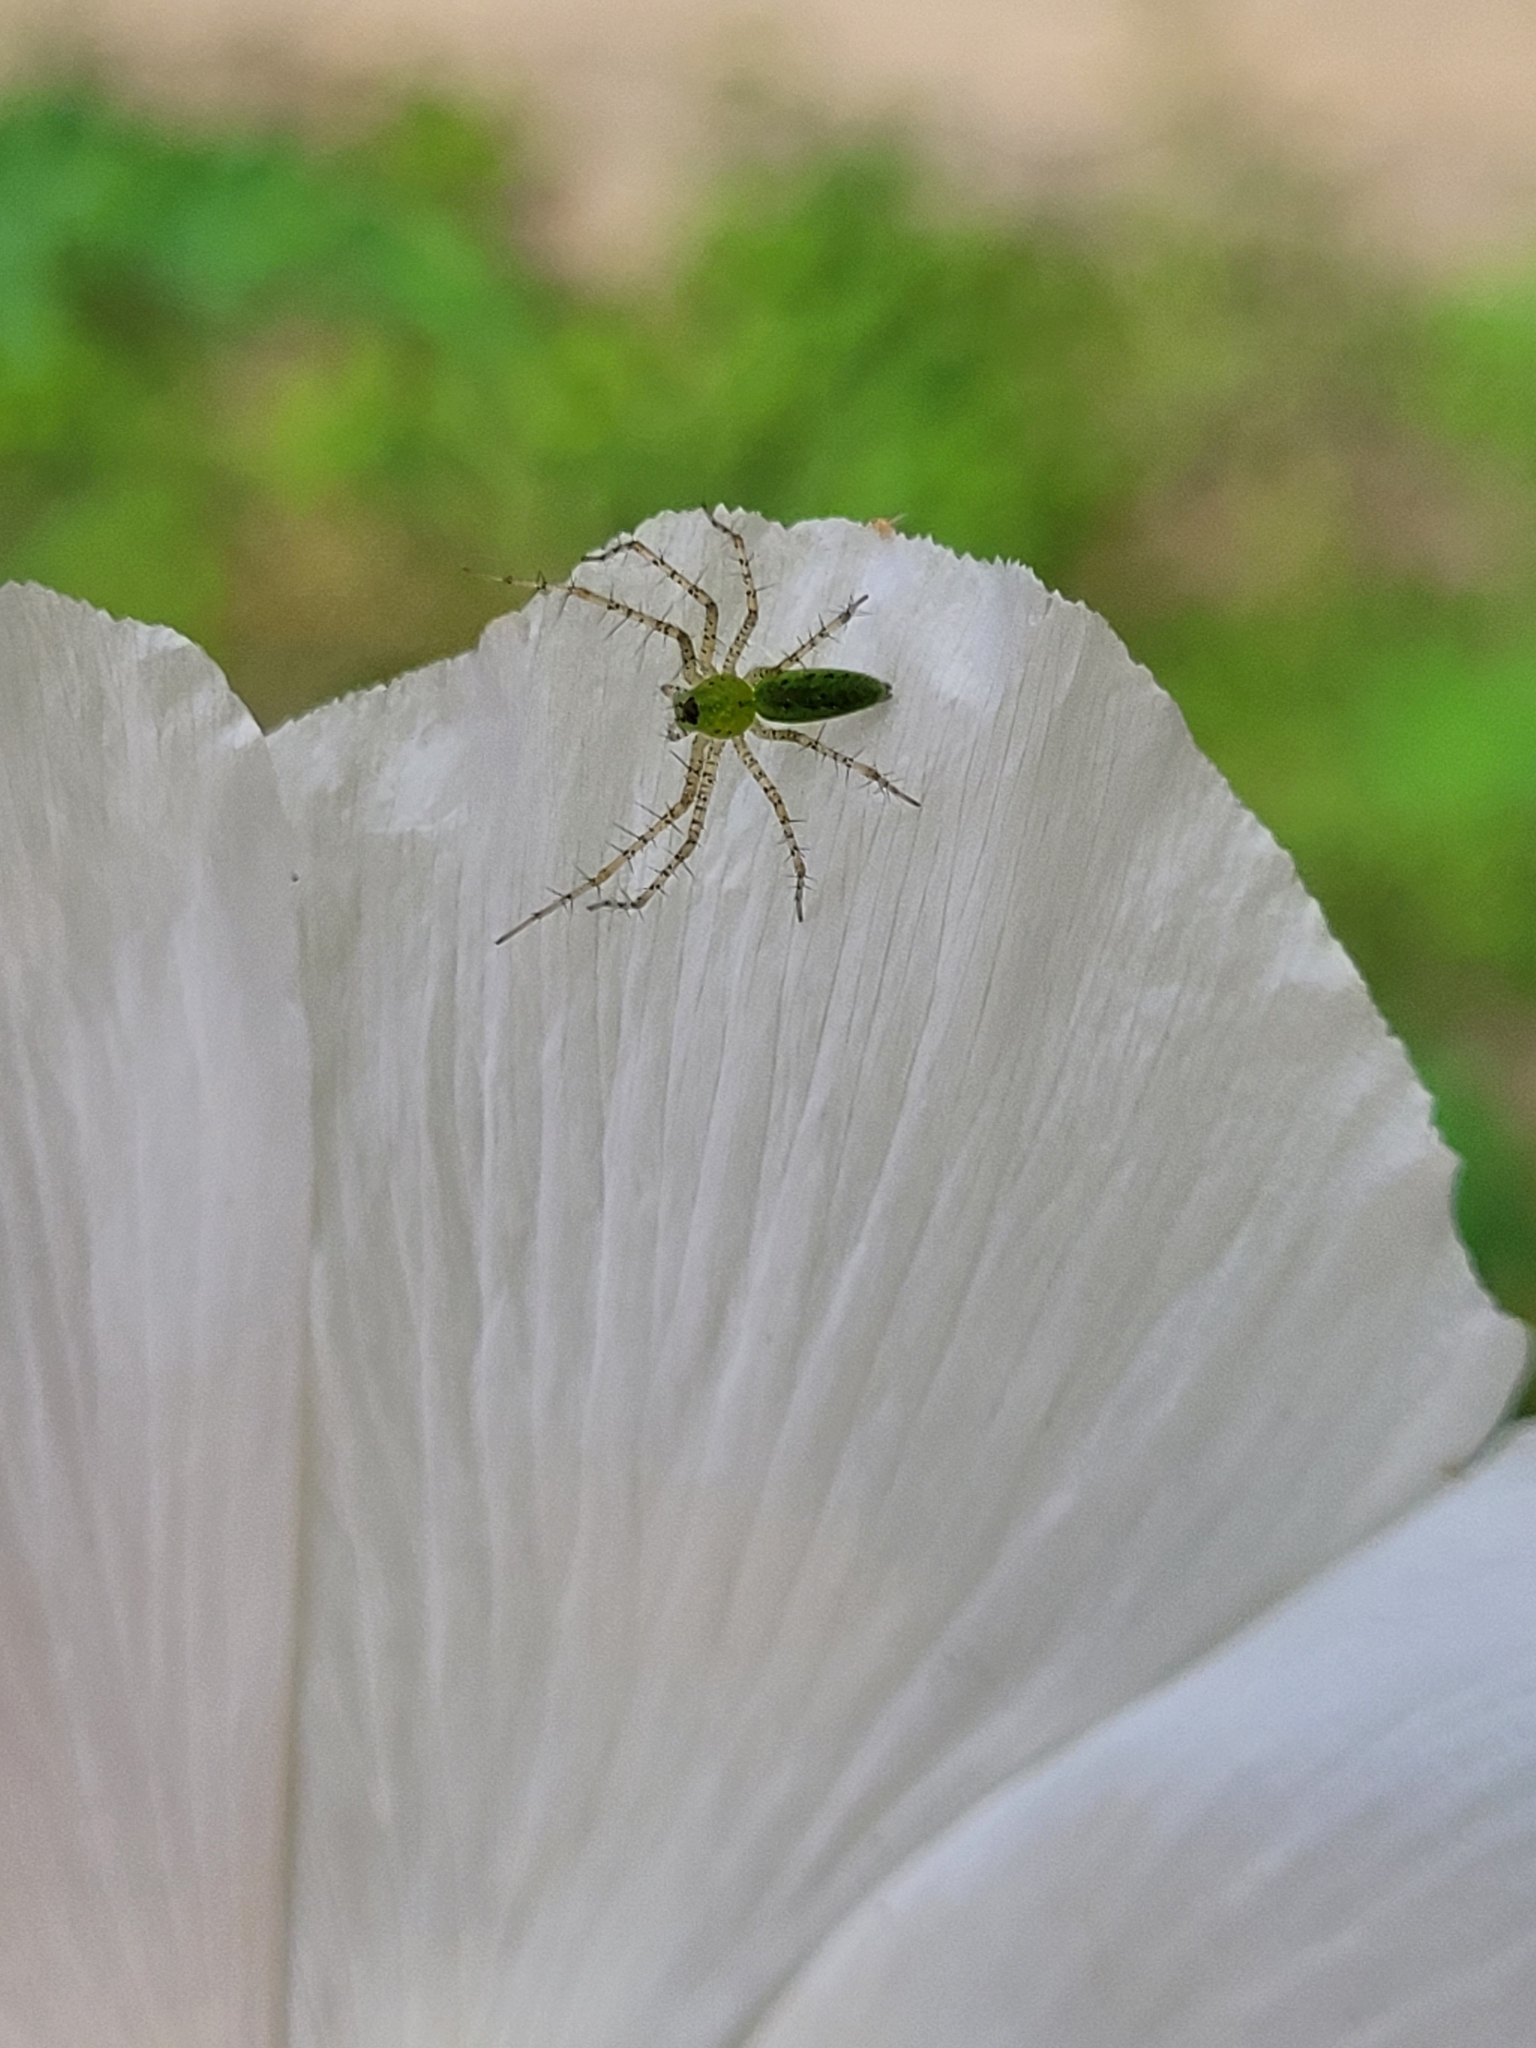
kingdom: Animalia
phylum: Arthropoda
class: Arachnida
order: Araneae
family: Oxyopidae
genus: Peucetia
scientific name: Peucetia viridans
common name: Lynx spiders
